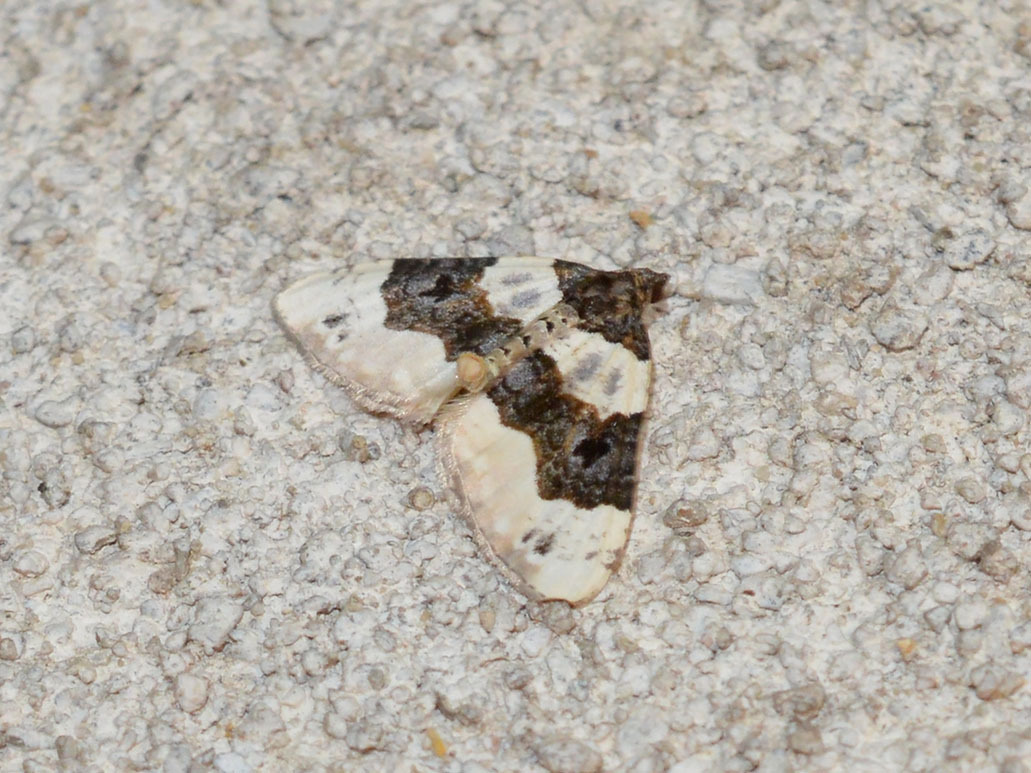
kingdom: Animalia
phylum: Arthropoda
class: Insecta
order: Lepidoptera
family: Geometridae
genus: Cosmorhoe
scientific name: Cosmorhoe ocellata
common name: Purple bar
